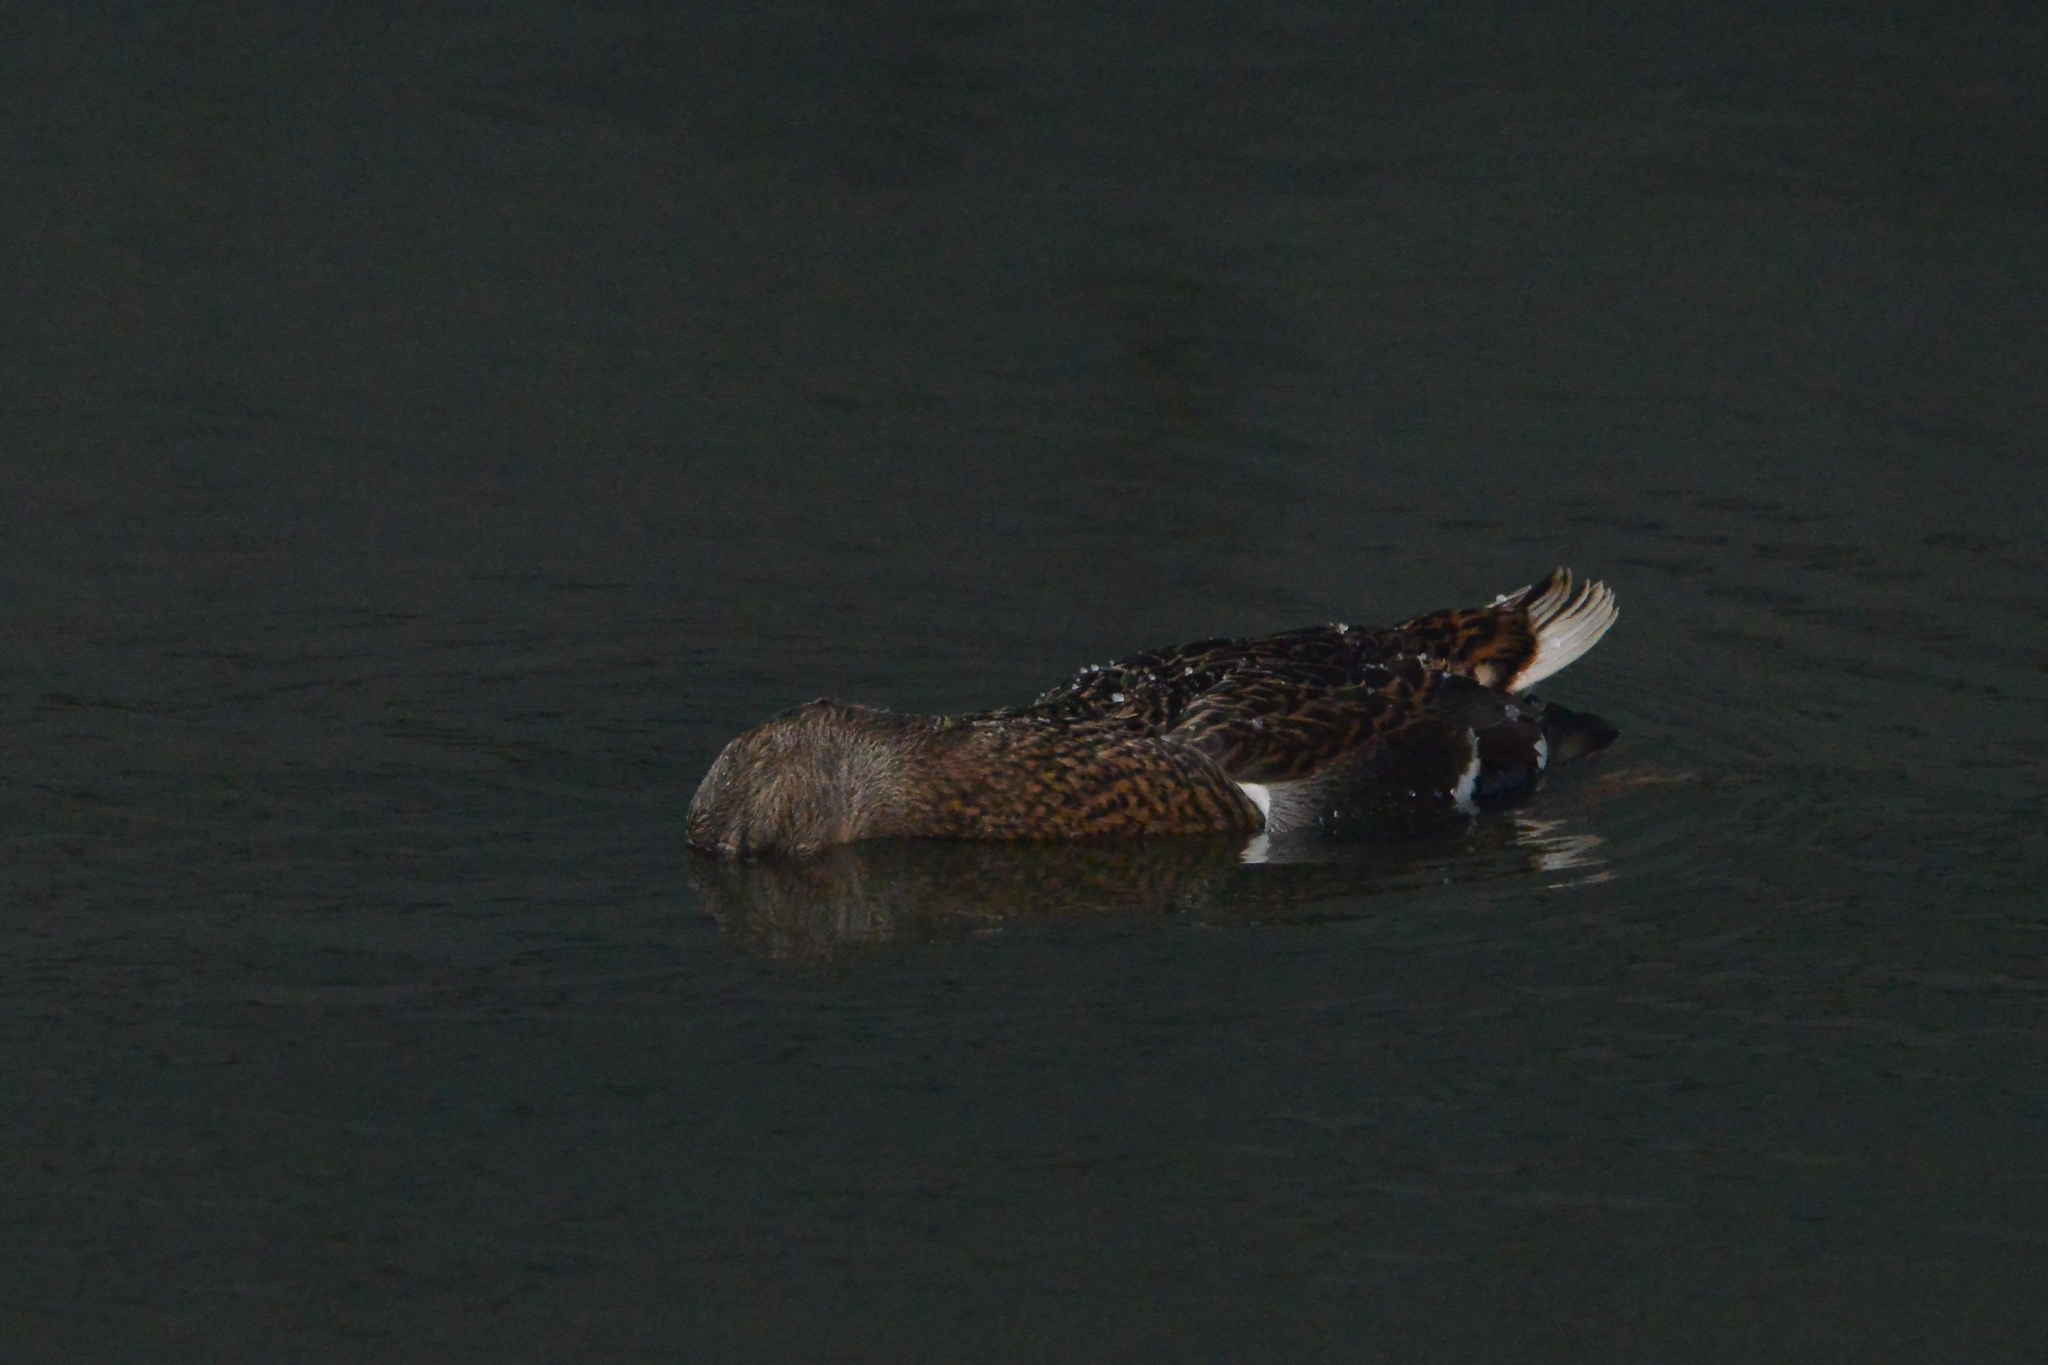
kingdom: Animalia
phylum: Chordata
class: Aves
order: Anseriformes
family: Anatidae
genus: Anas
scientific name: Anas platyrhynchos
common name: Mallard
